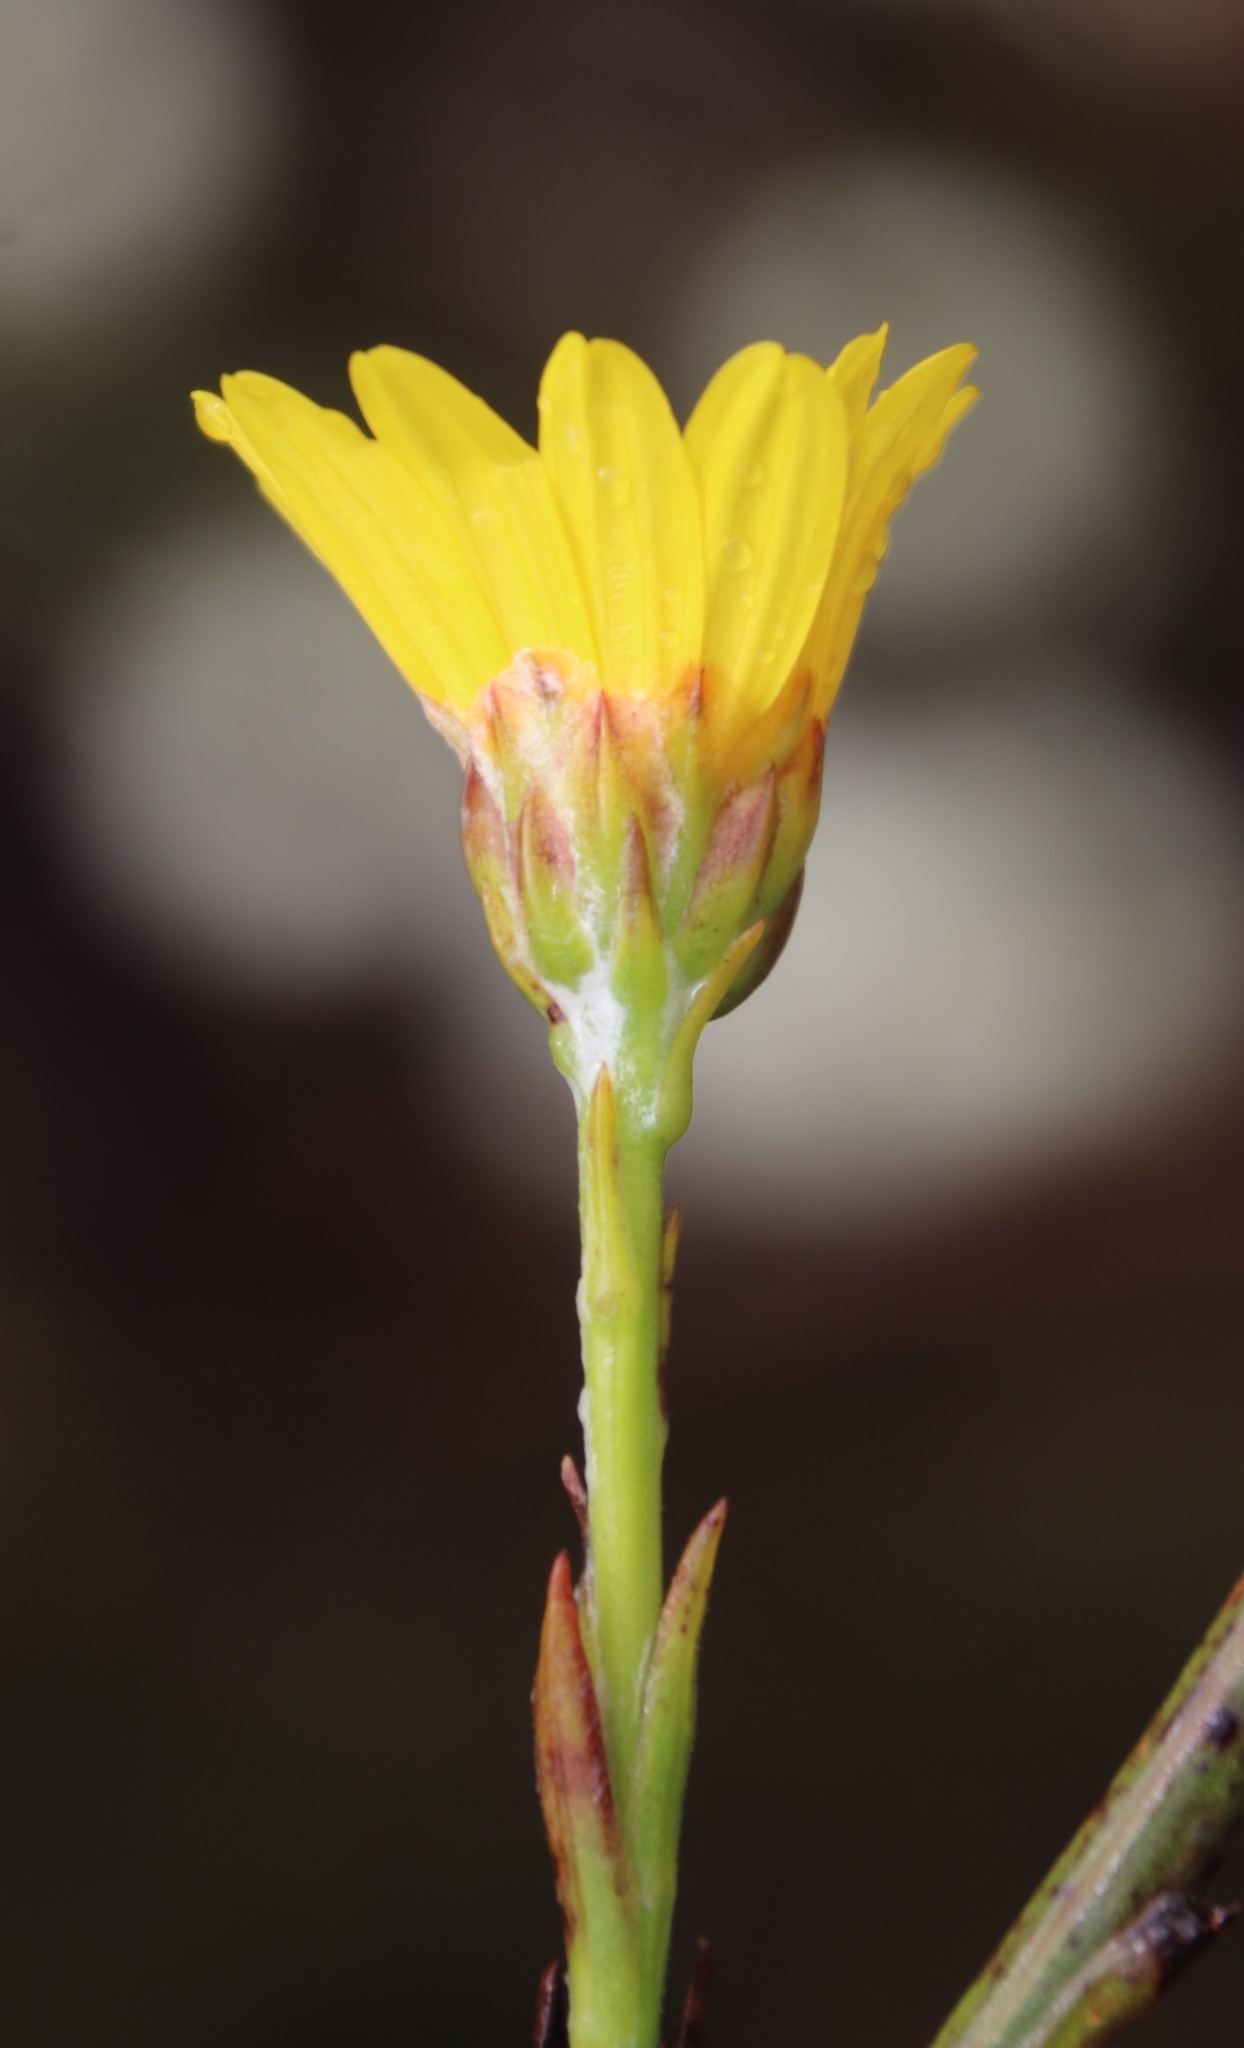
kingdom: Plantae
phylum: Tracheophyta
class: Magnoliopsida
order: Asterales
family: Asteraceae
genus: Osteospermum
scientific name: Osteospermum junceum
